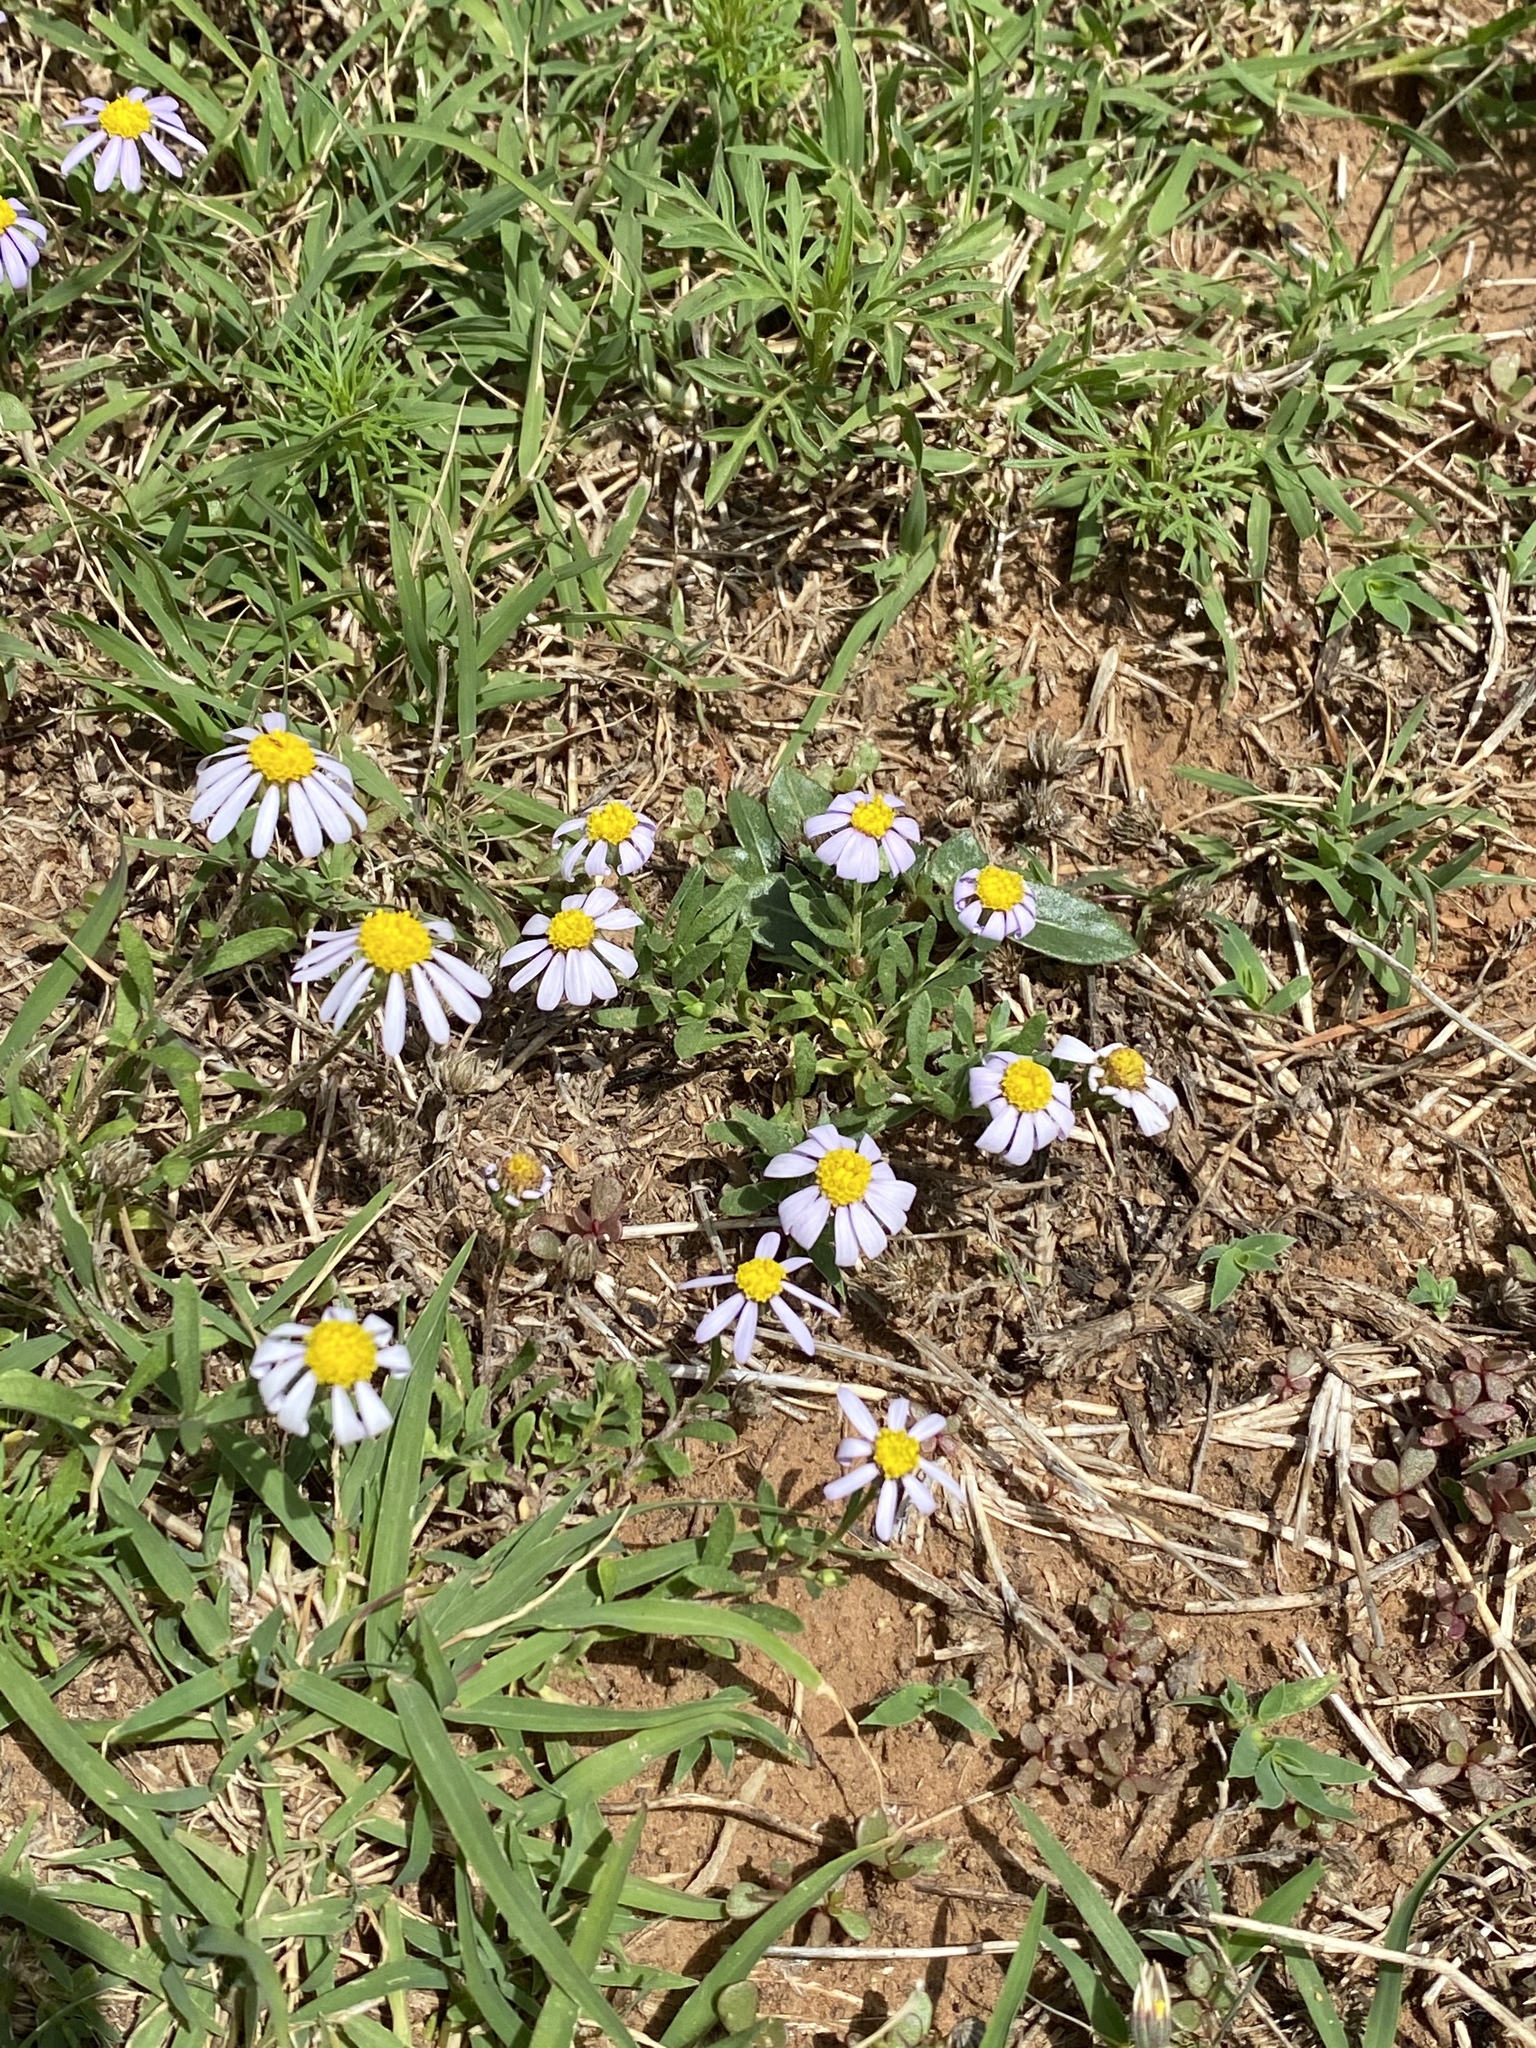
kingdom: Plantae
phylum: Tracheophyta
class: Magnoliopsida
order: Asterales
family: Asteraceae
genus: Amellus
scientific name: Amellus strigosus
